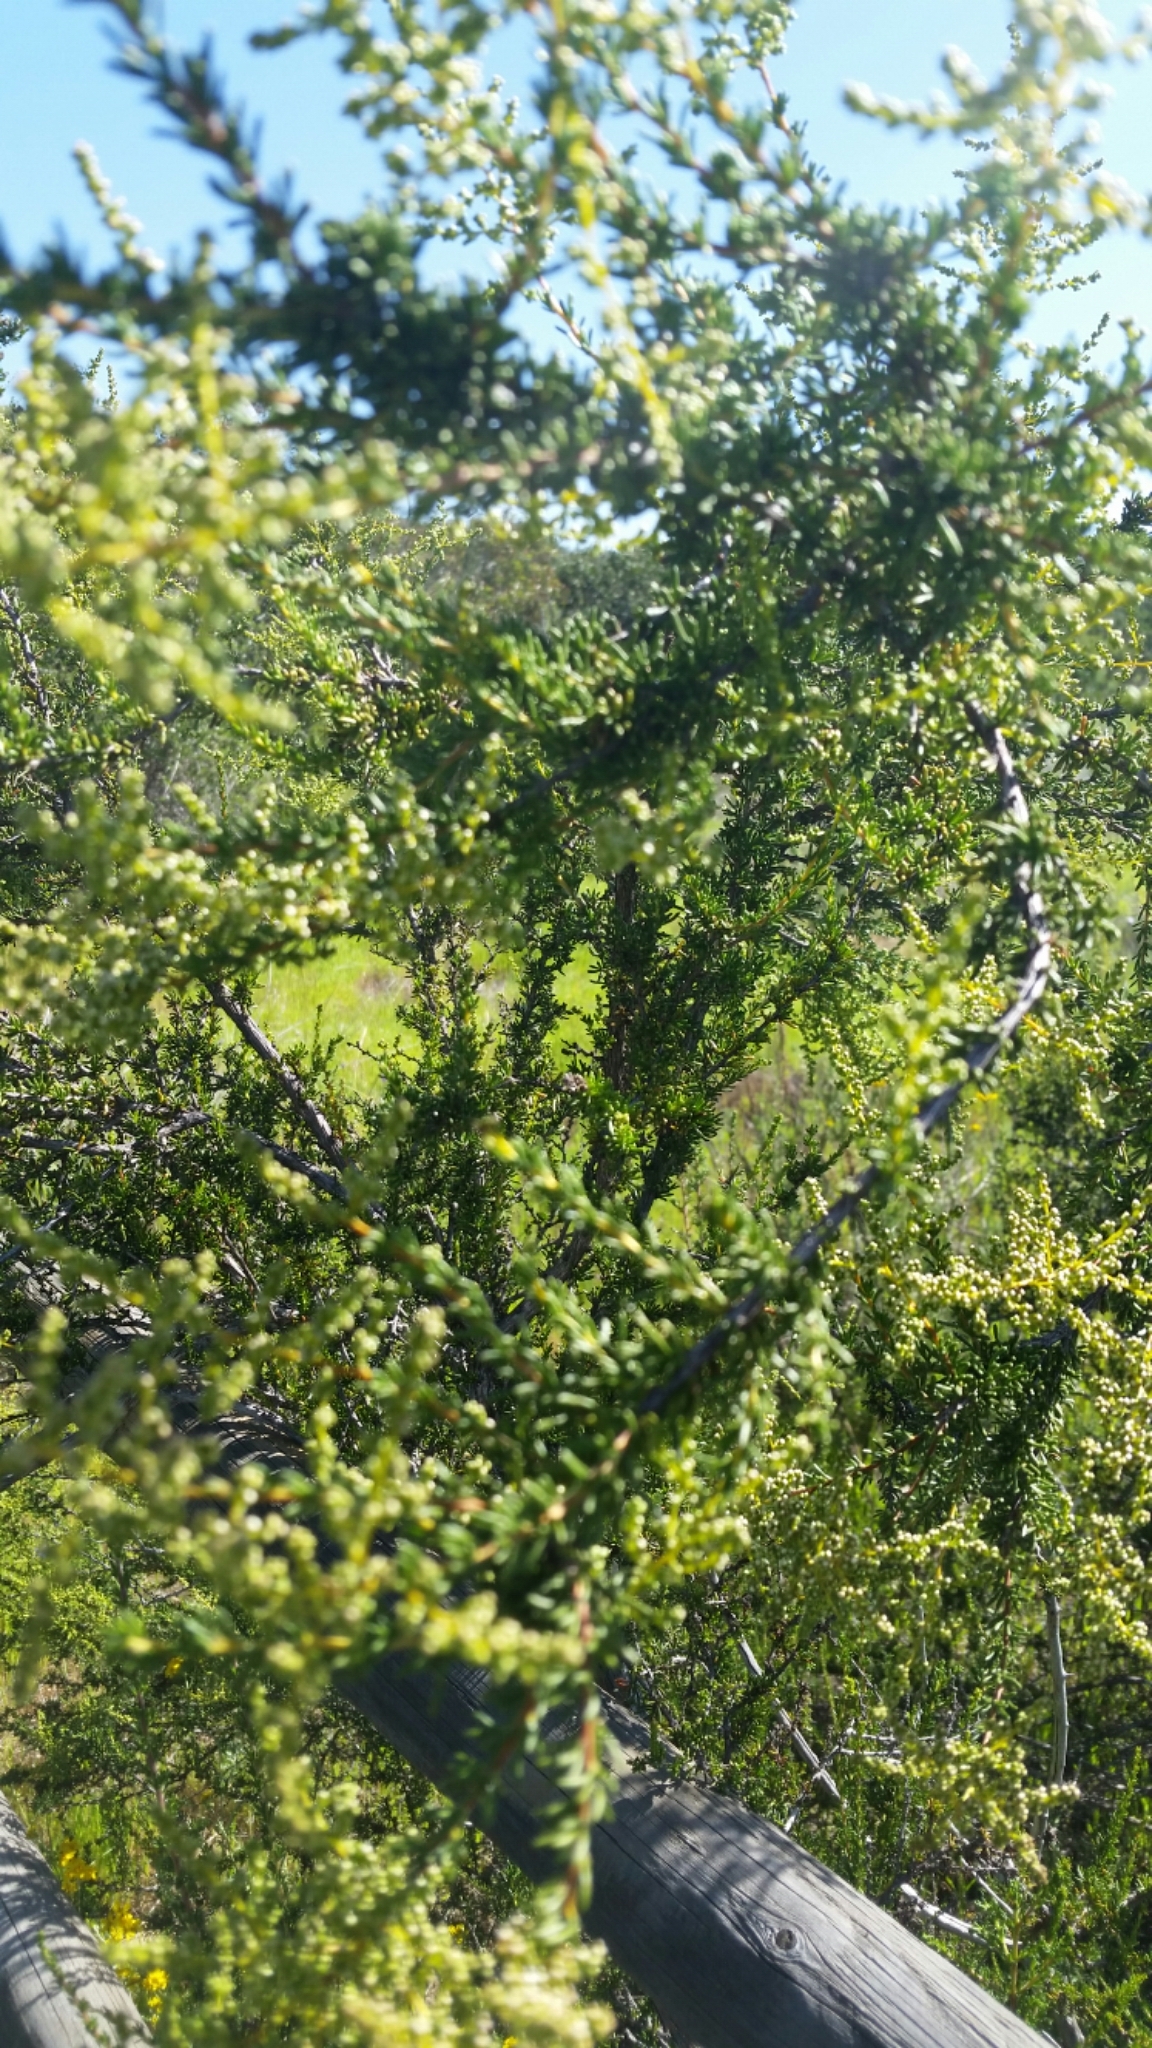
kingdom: Plantae
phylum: Tracheophyta
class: Magnoliopsida
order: Rosales
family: Rosaceae
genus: Adenostoma
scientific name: Adenostoma fasciculatum
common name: Chamise
